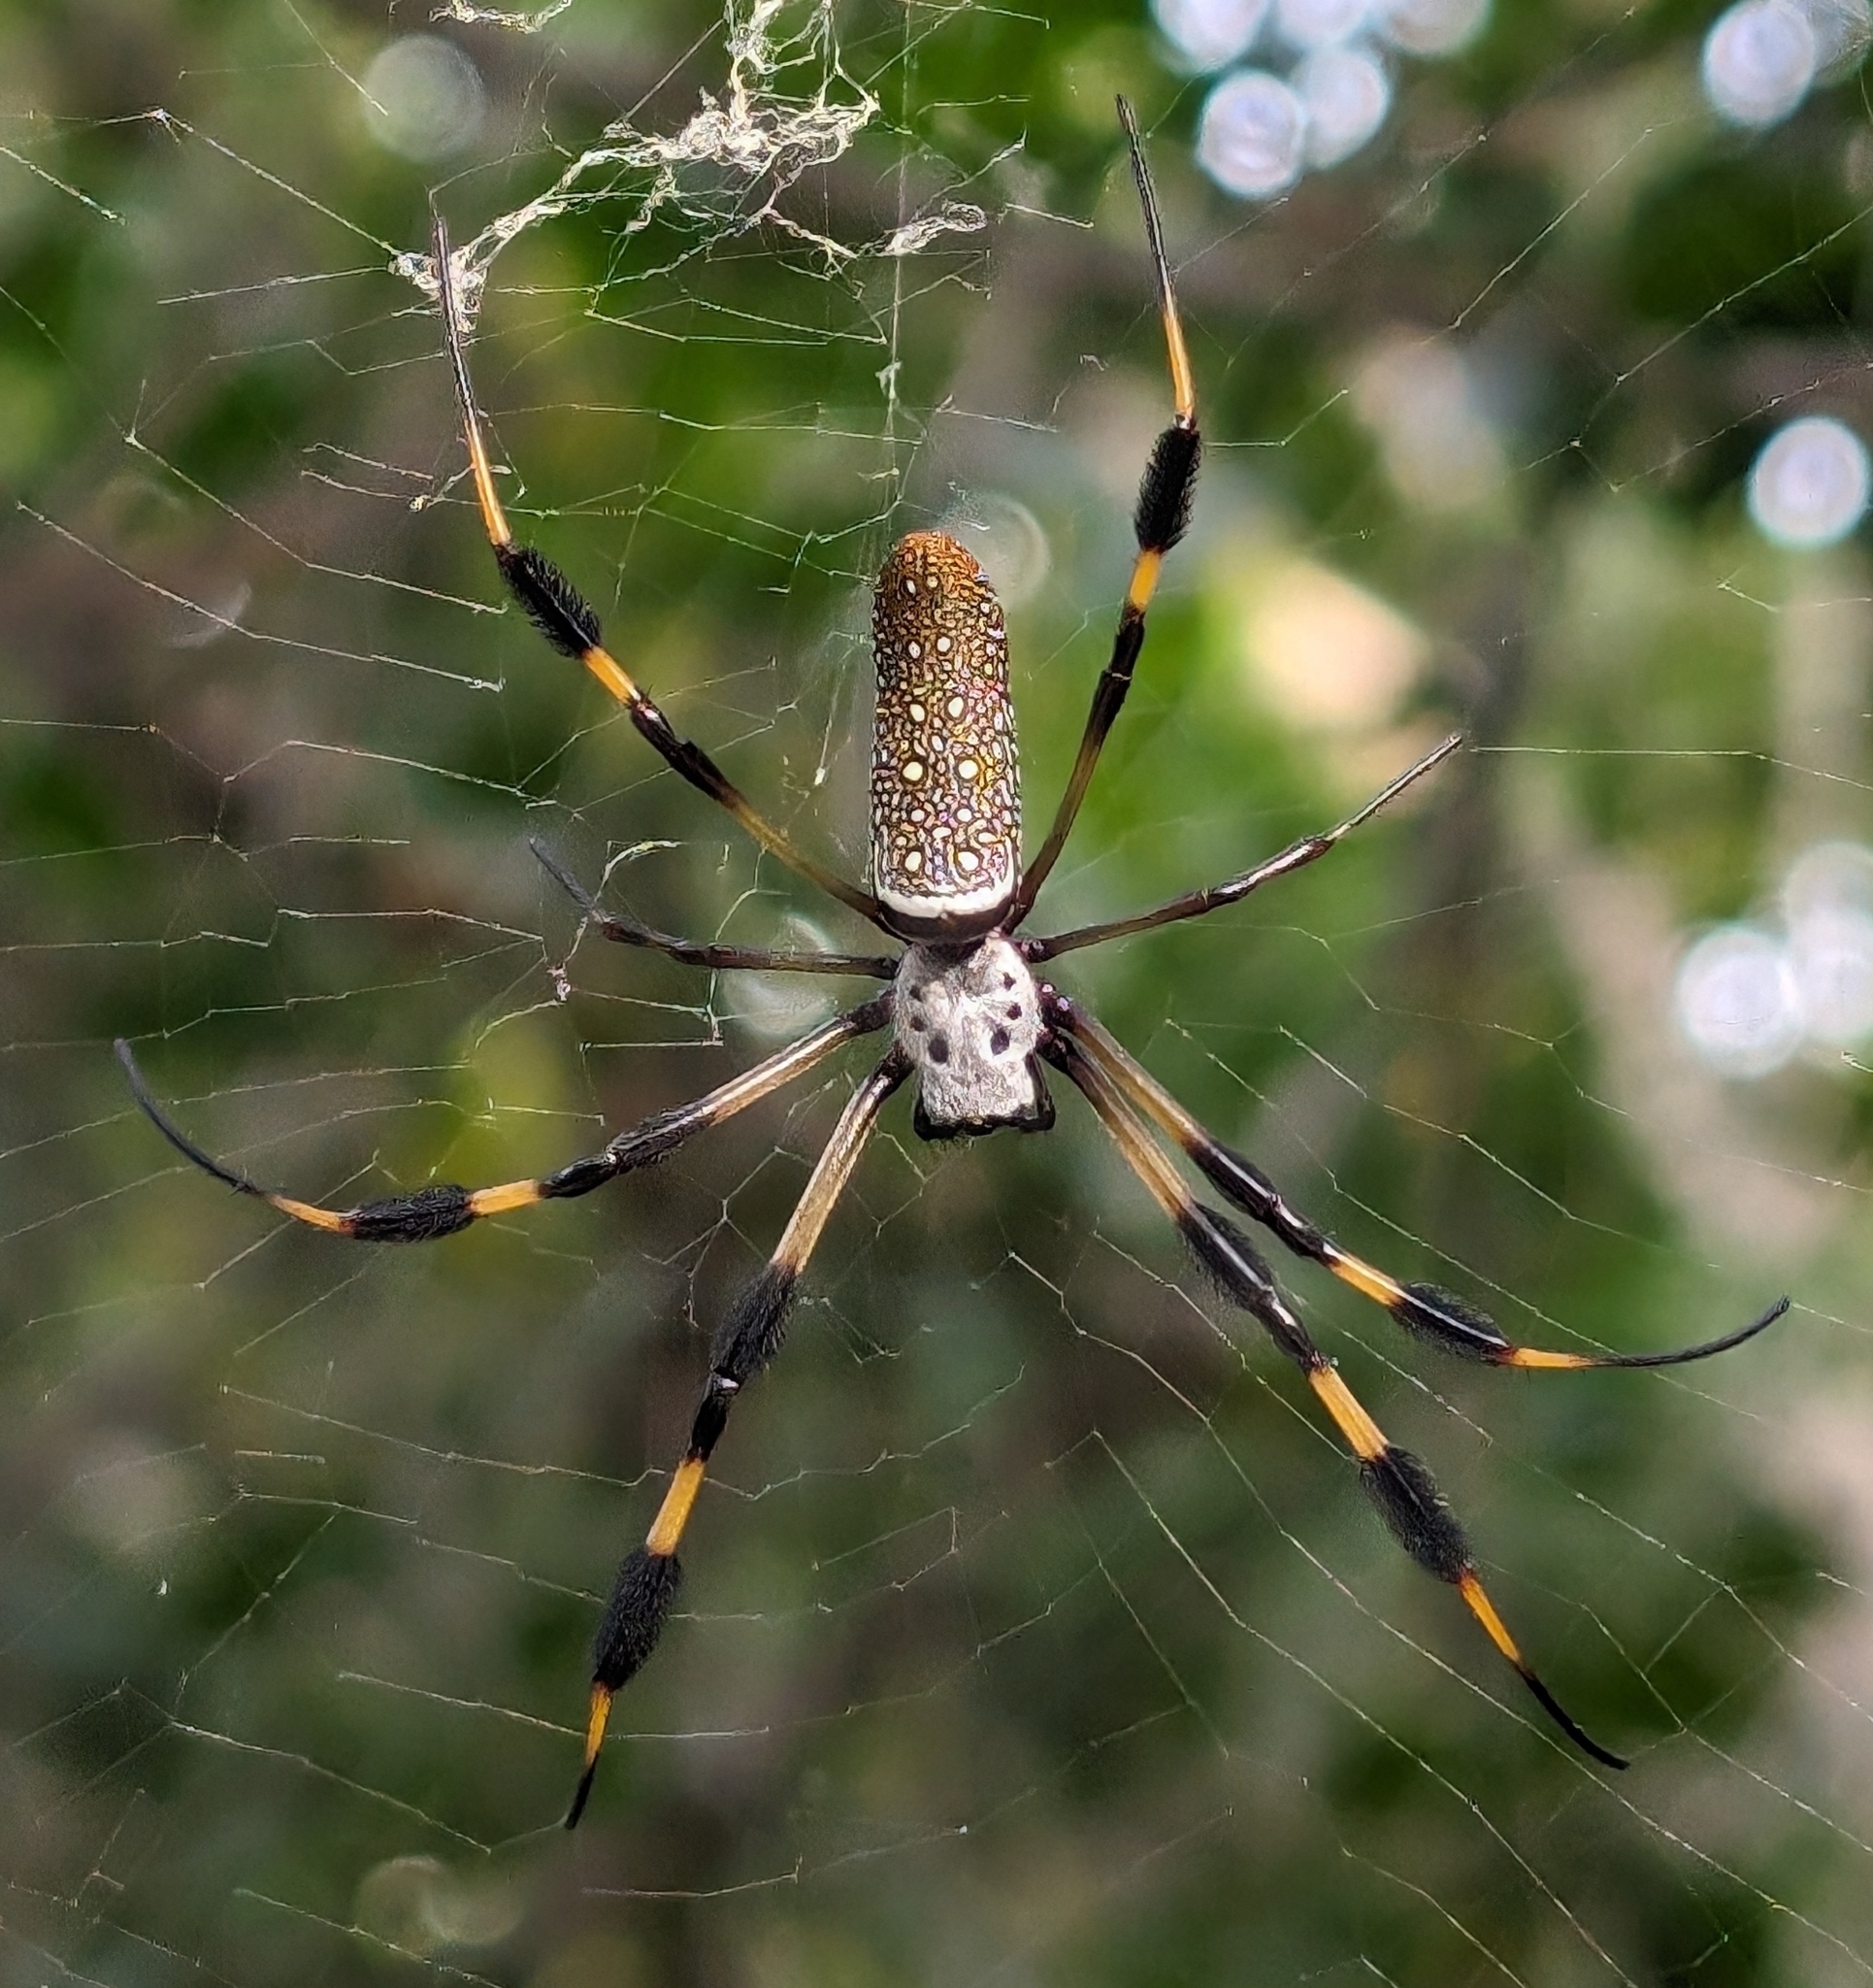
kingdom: Animalia
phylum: Arthropoda
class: Arachnida
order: Araneae
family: Araneidae
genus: Trichonephila
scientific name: Trichonephila clavipes
